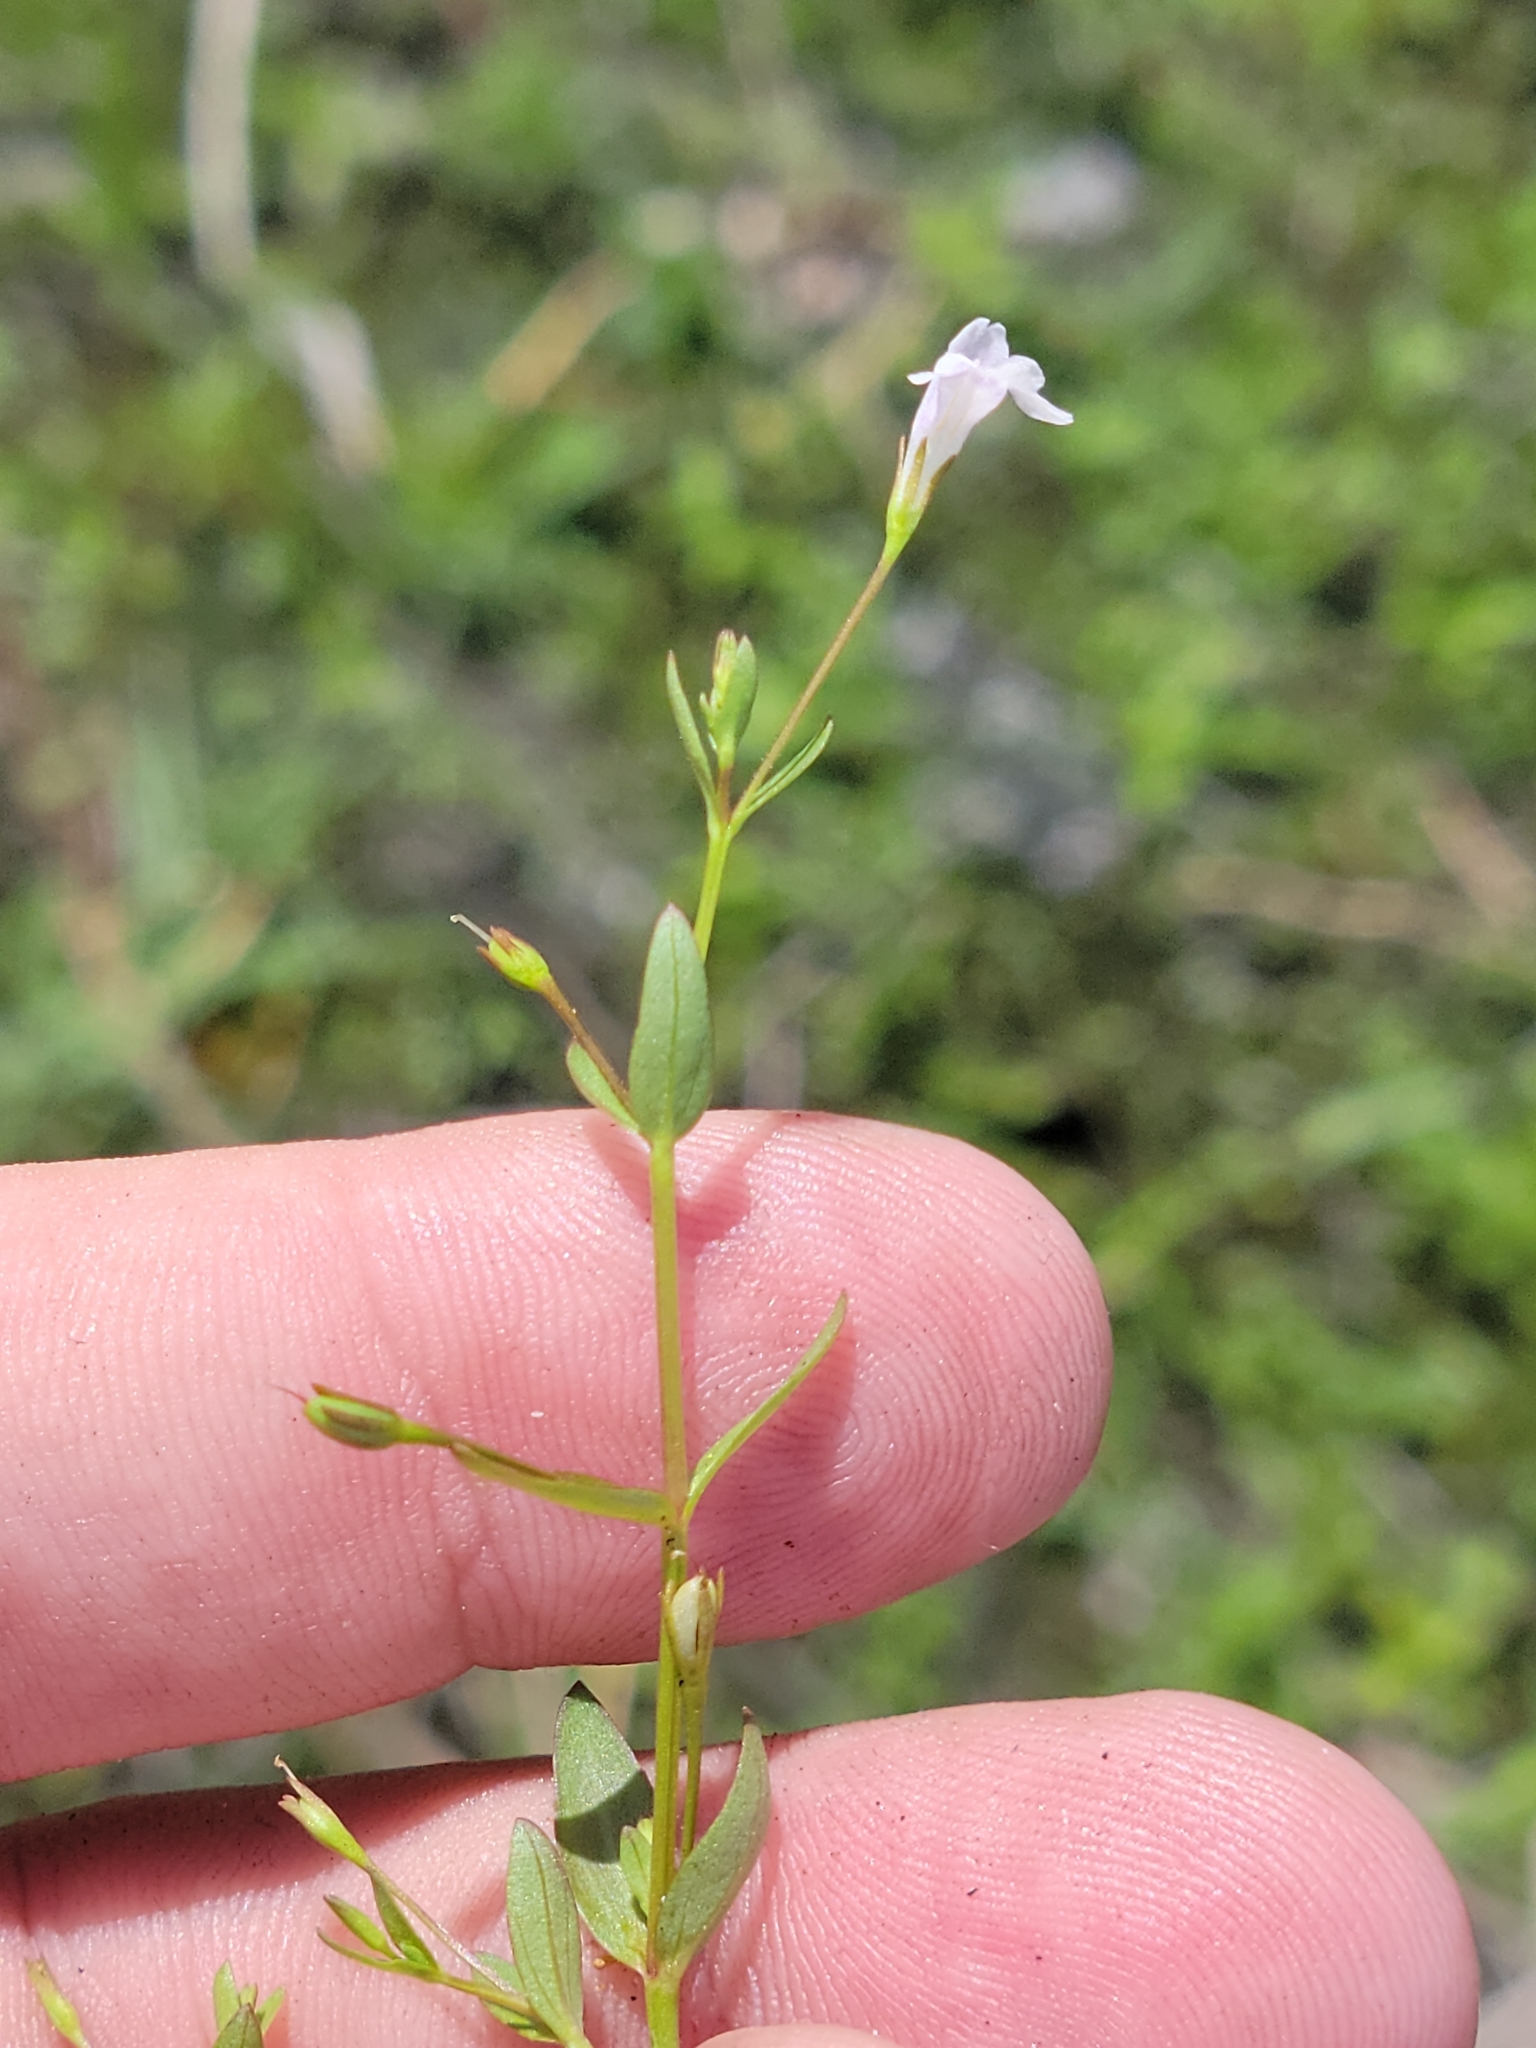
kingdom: Plantae
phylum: Tracheophyta
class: Magnoliopsida
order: Lamiales
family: Linderniaceae
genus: Lindernia
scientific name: Lindernia dubia
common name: Annual false pimpernel
